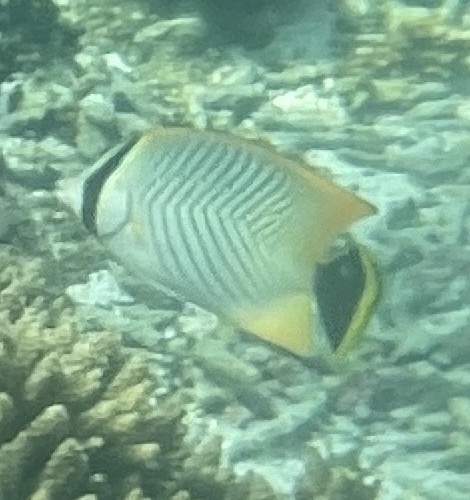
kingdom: Animalia
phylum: Chordata
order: Perciformes
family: Chaetodontidae
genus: Chaetodon
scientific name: Chaetodon trifascialis
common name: Chevroned butterflyfish
